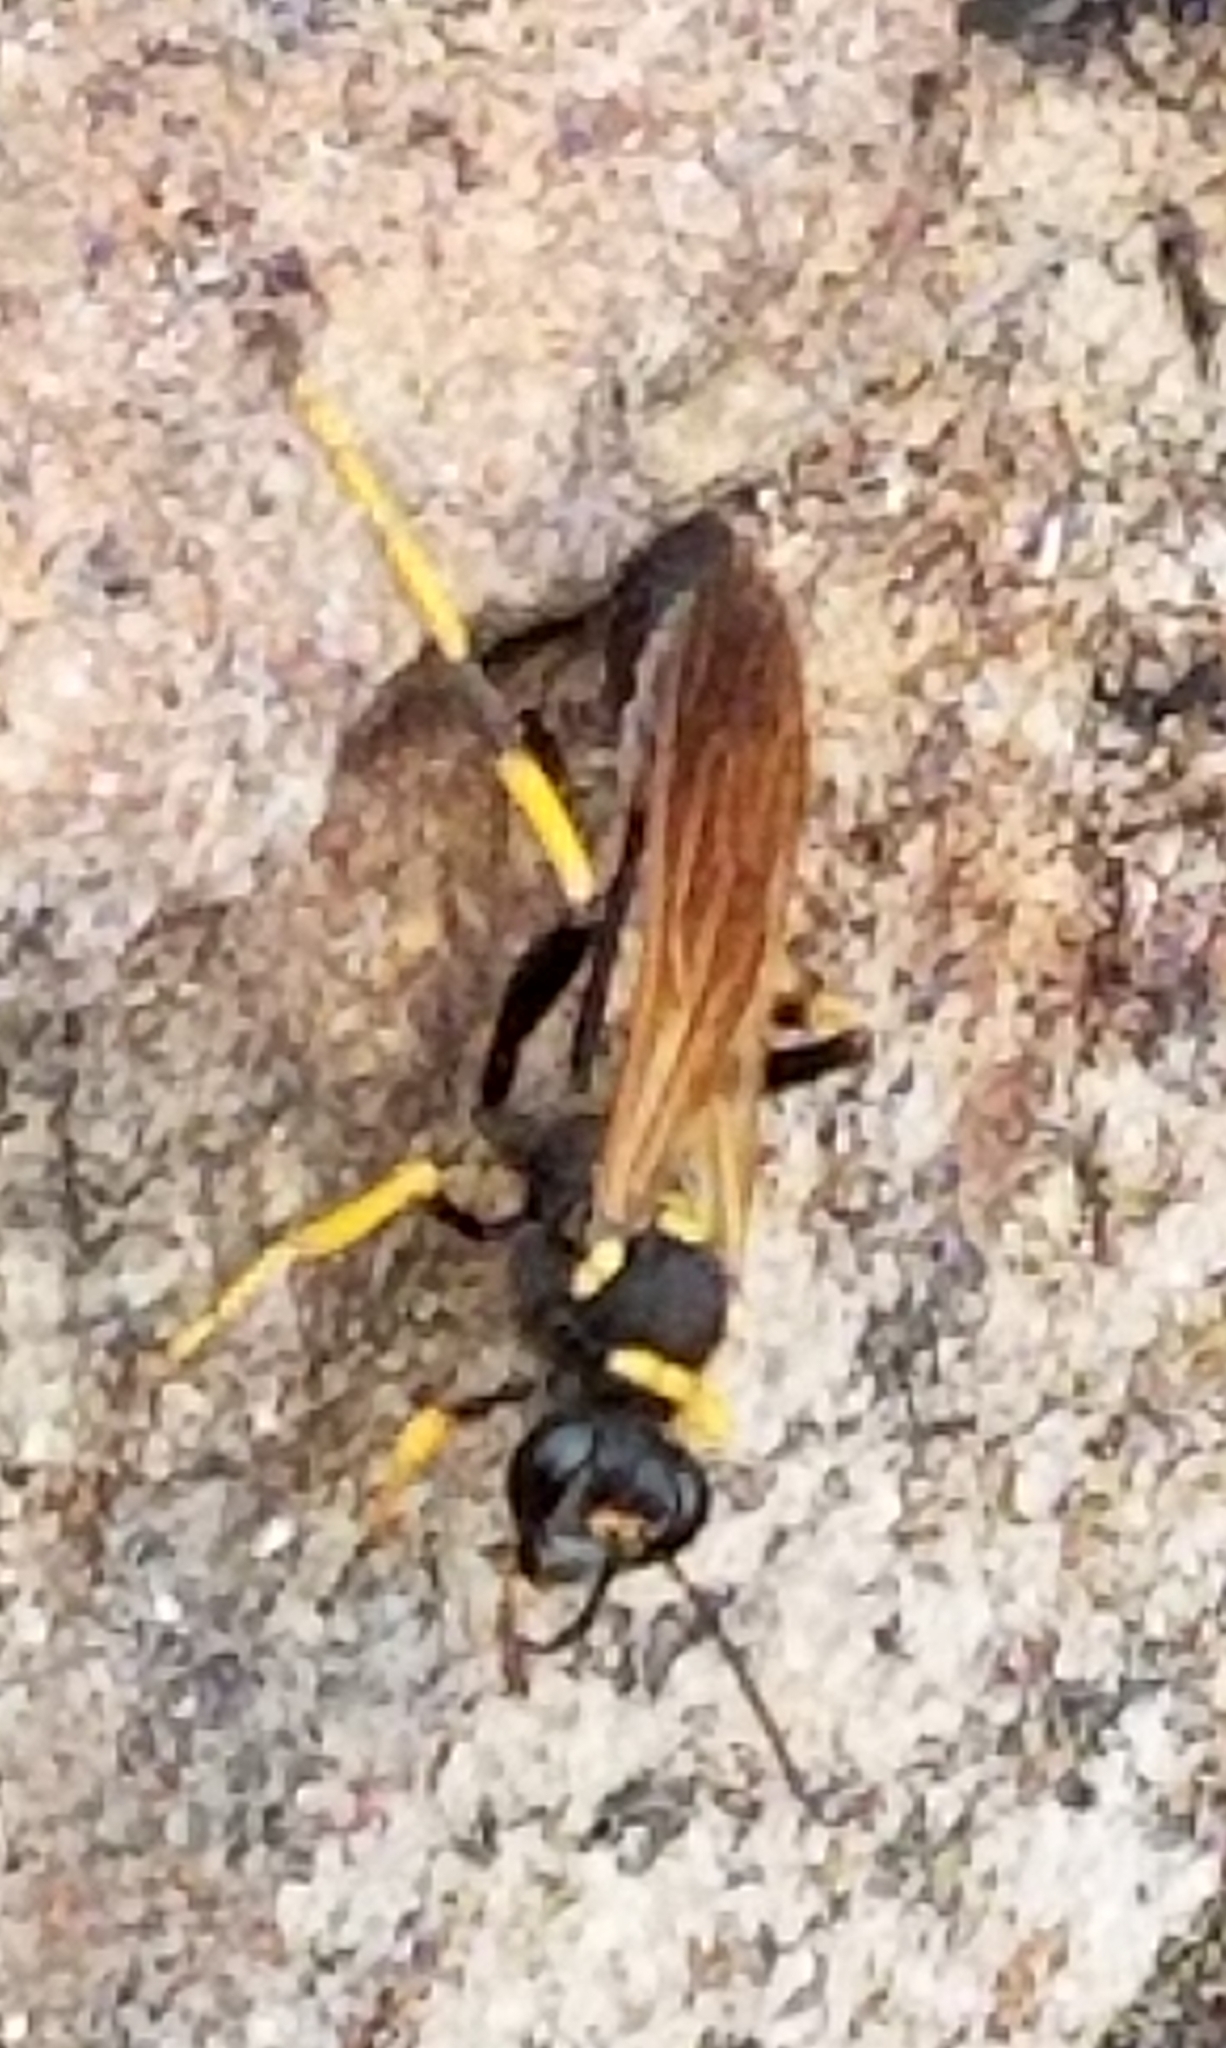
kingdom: Animalia
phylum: Arthropoda
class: Insecta
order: Hymenoptera
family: Sphecidae
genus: Sceliphron
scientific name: Sceliphron caementarium
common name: Mud dauber
